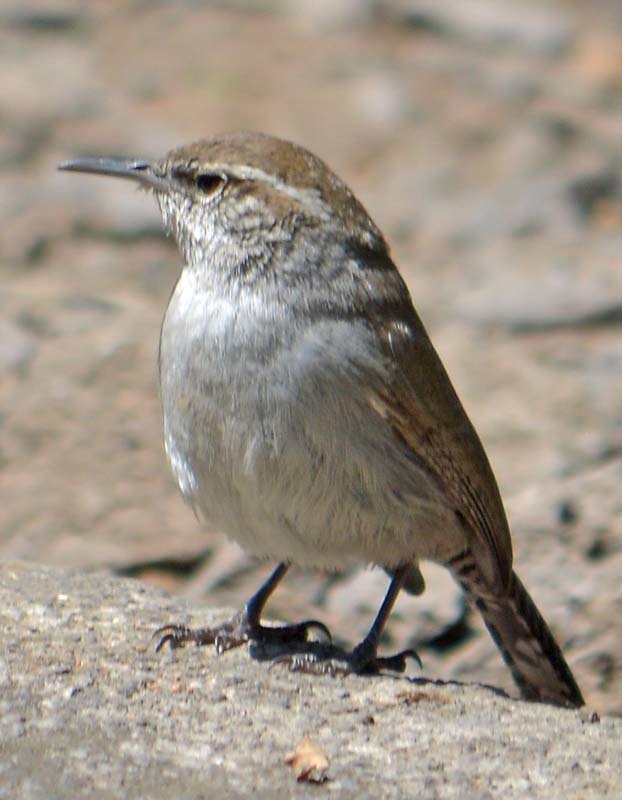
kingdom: Animalia
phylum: Chordata
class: Aves
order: Passeriformes
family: Troglodytidae
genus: Thryomanes
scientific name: Thryomanes bewickii
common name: Bewick's wren
